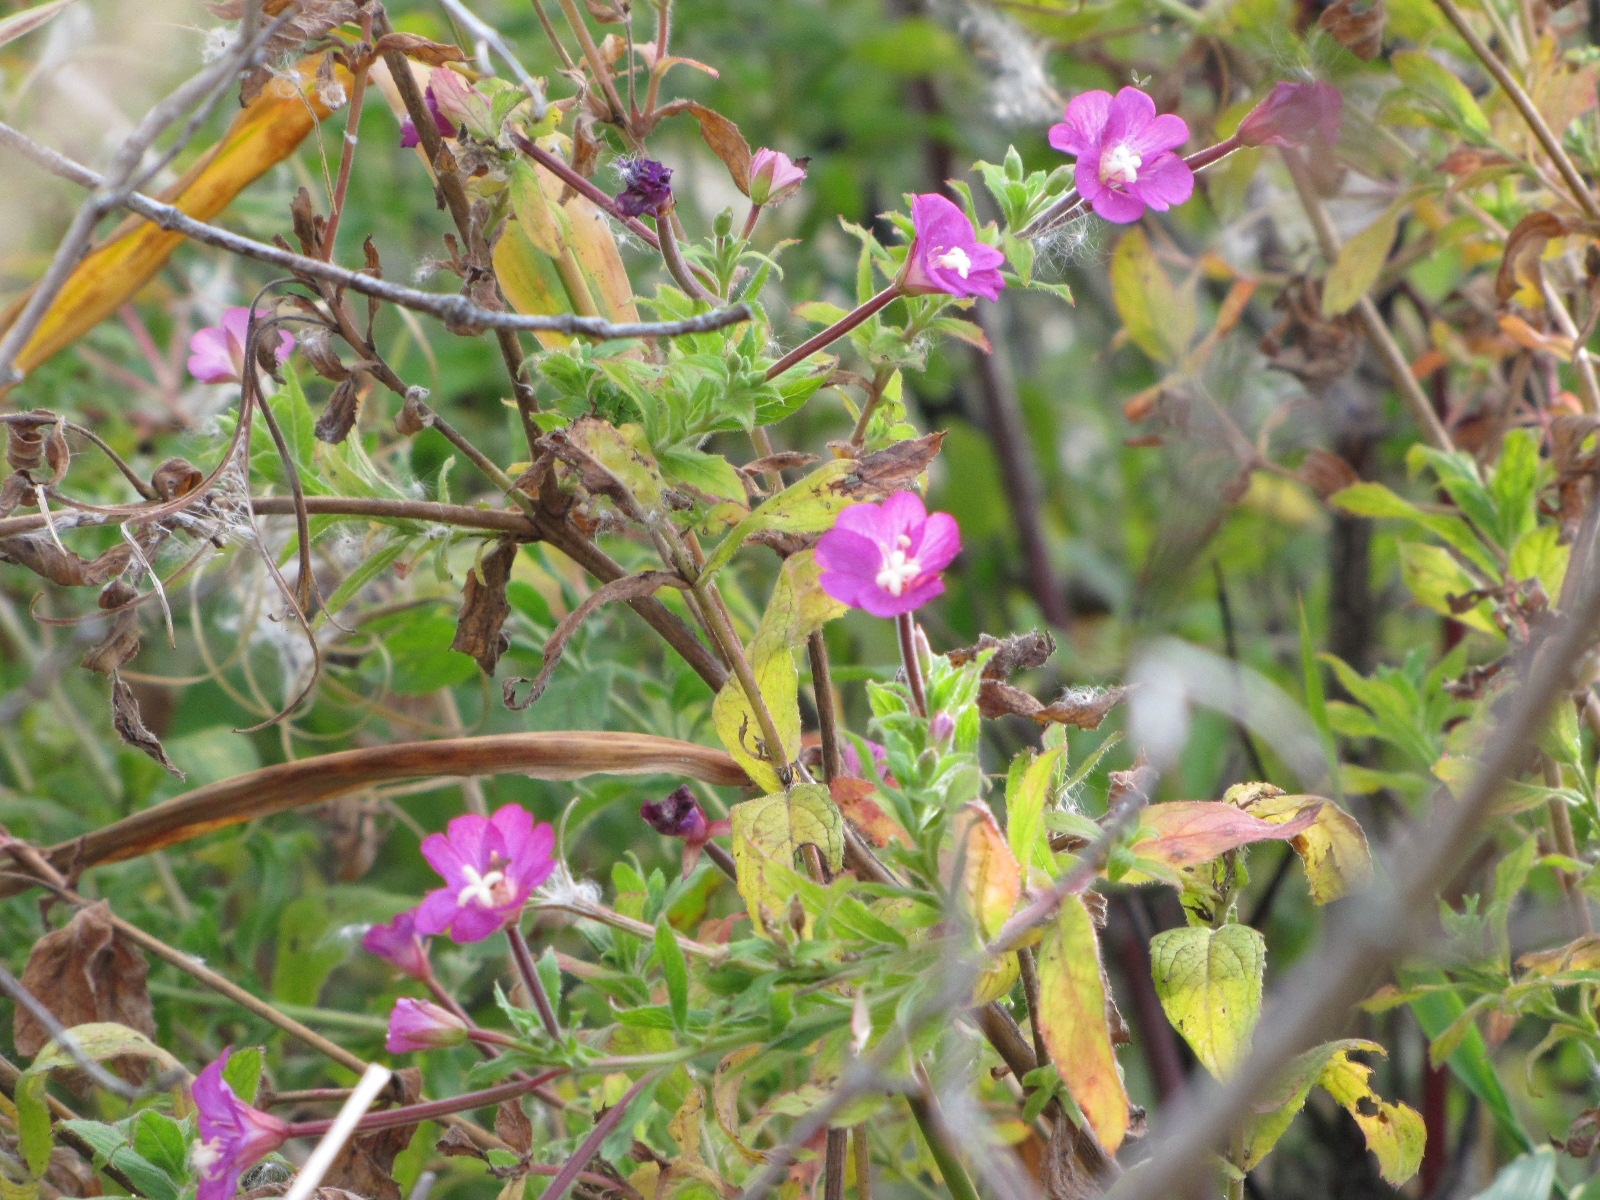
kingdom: Plantae
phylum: Tracheophyta
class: Magnoliopsida
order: Myrtales
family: Onagraceae
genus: Epilobium
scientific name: Epilobium hirsutum
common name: Great willowherb
